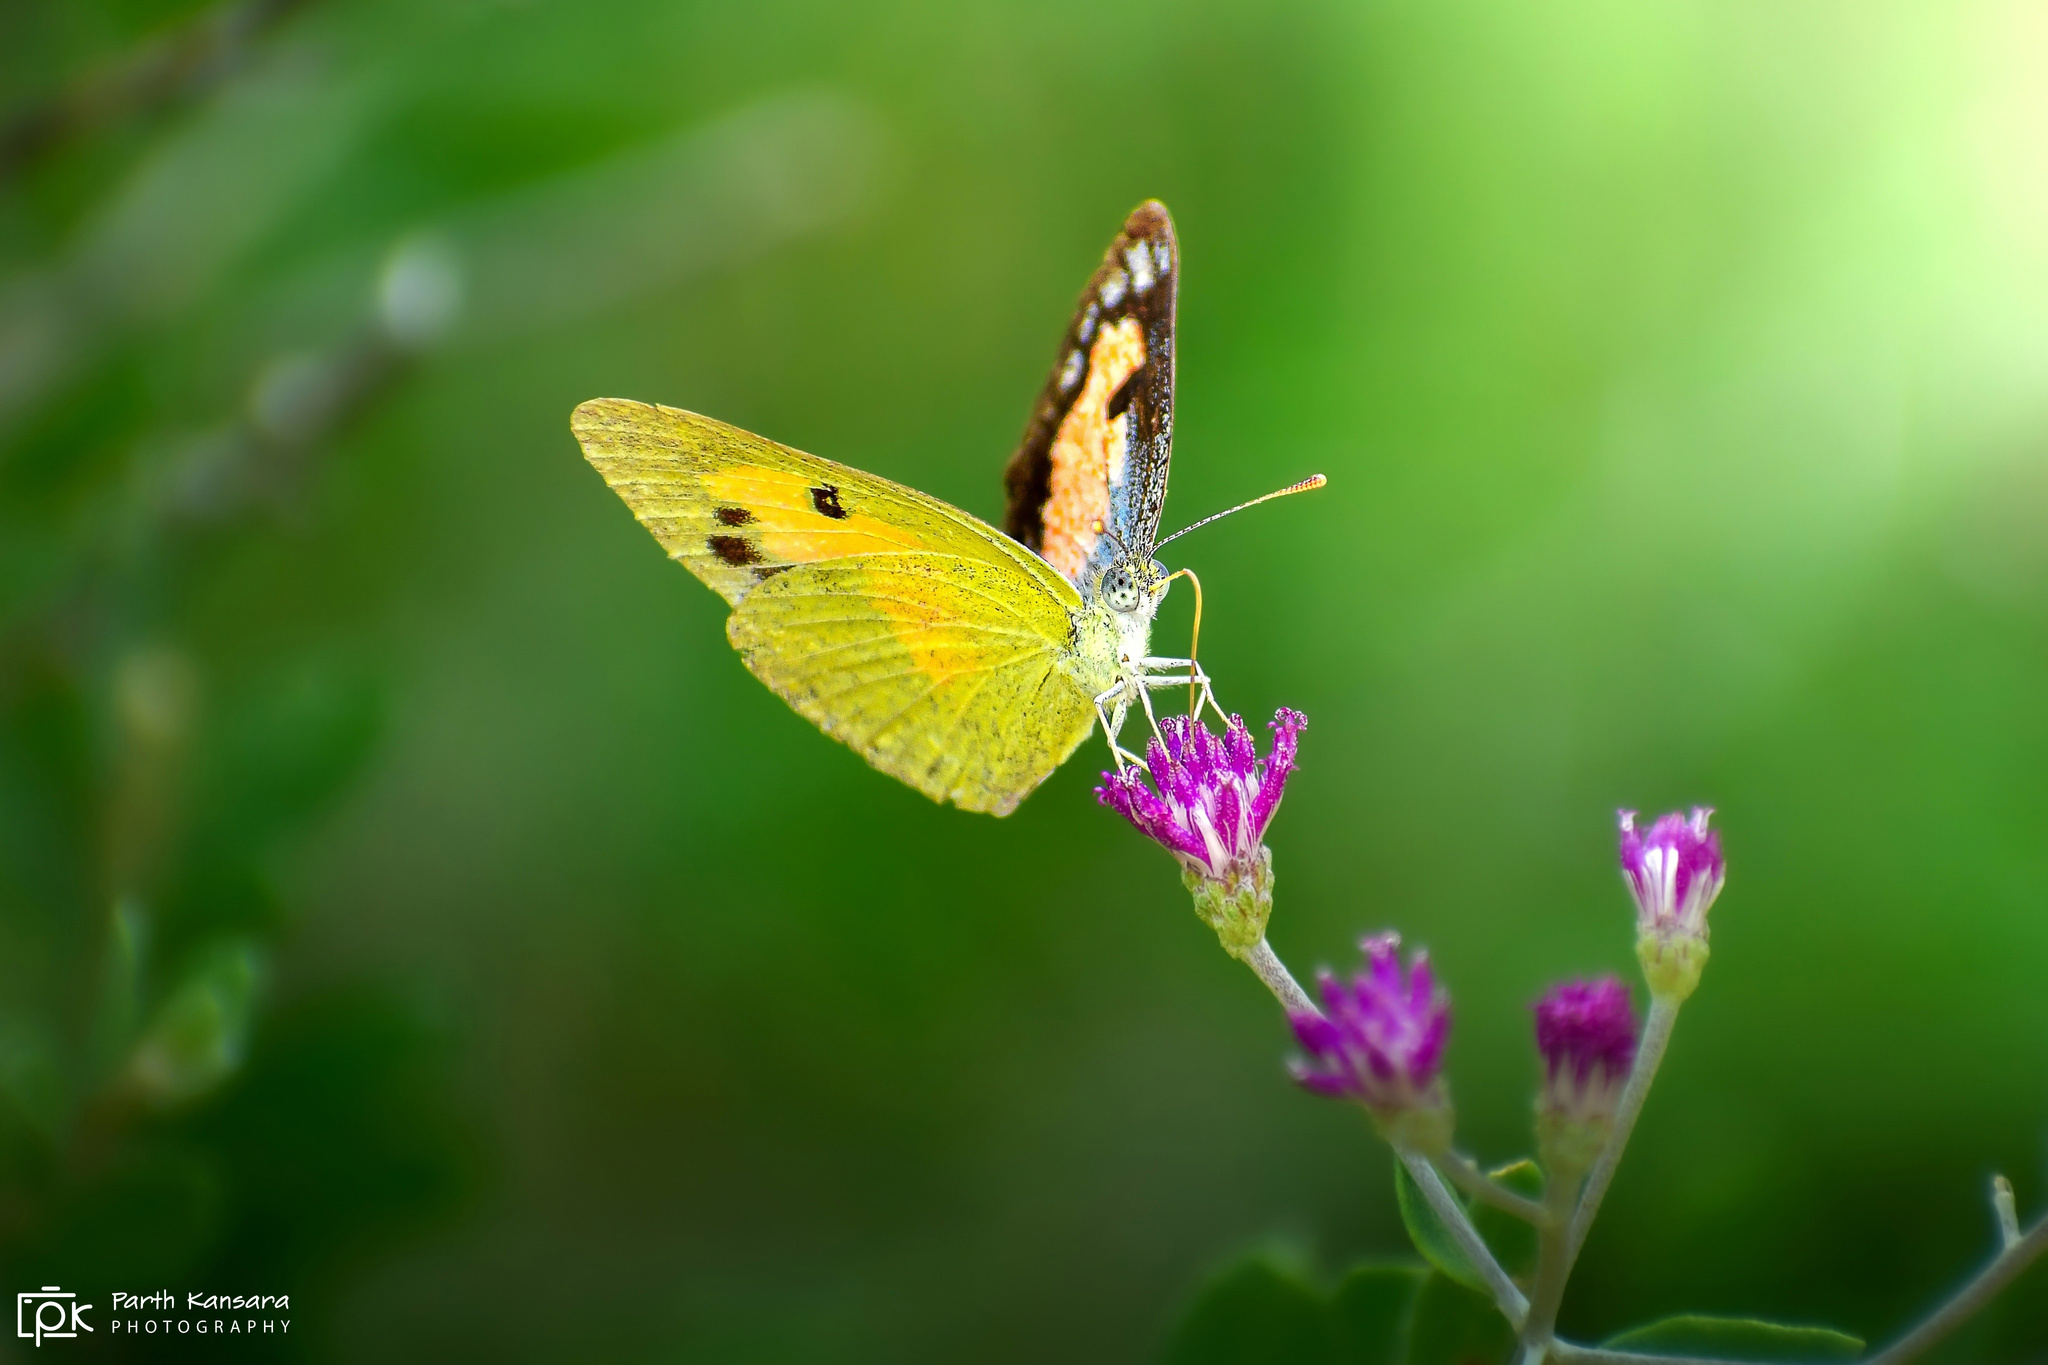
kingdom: Animalia
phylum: Arthropoda
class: Insecta
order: Lepidoptera
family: Pieridae
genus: Colotis
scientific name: Colotis protractus
